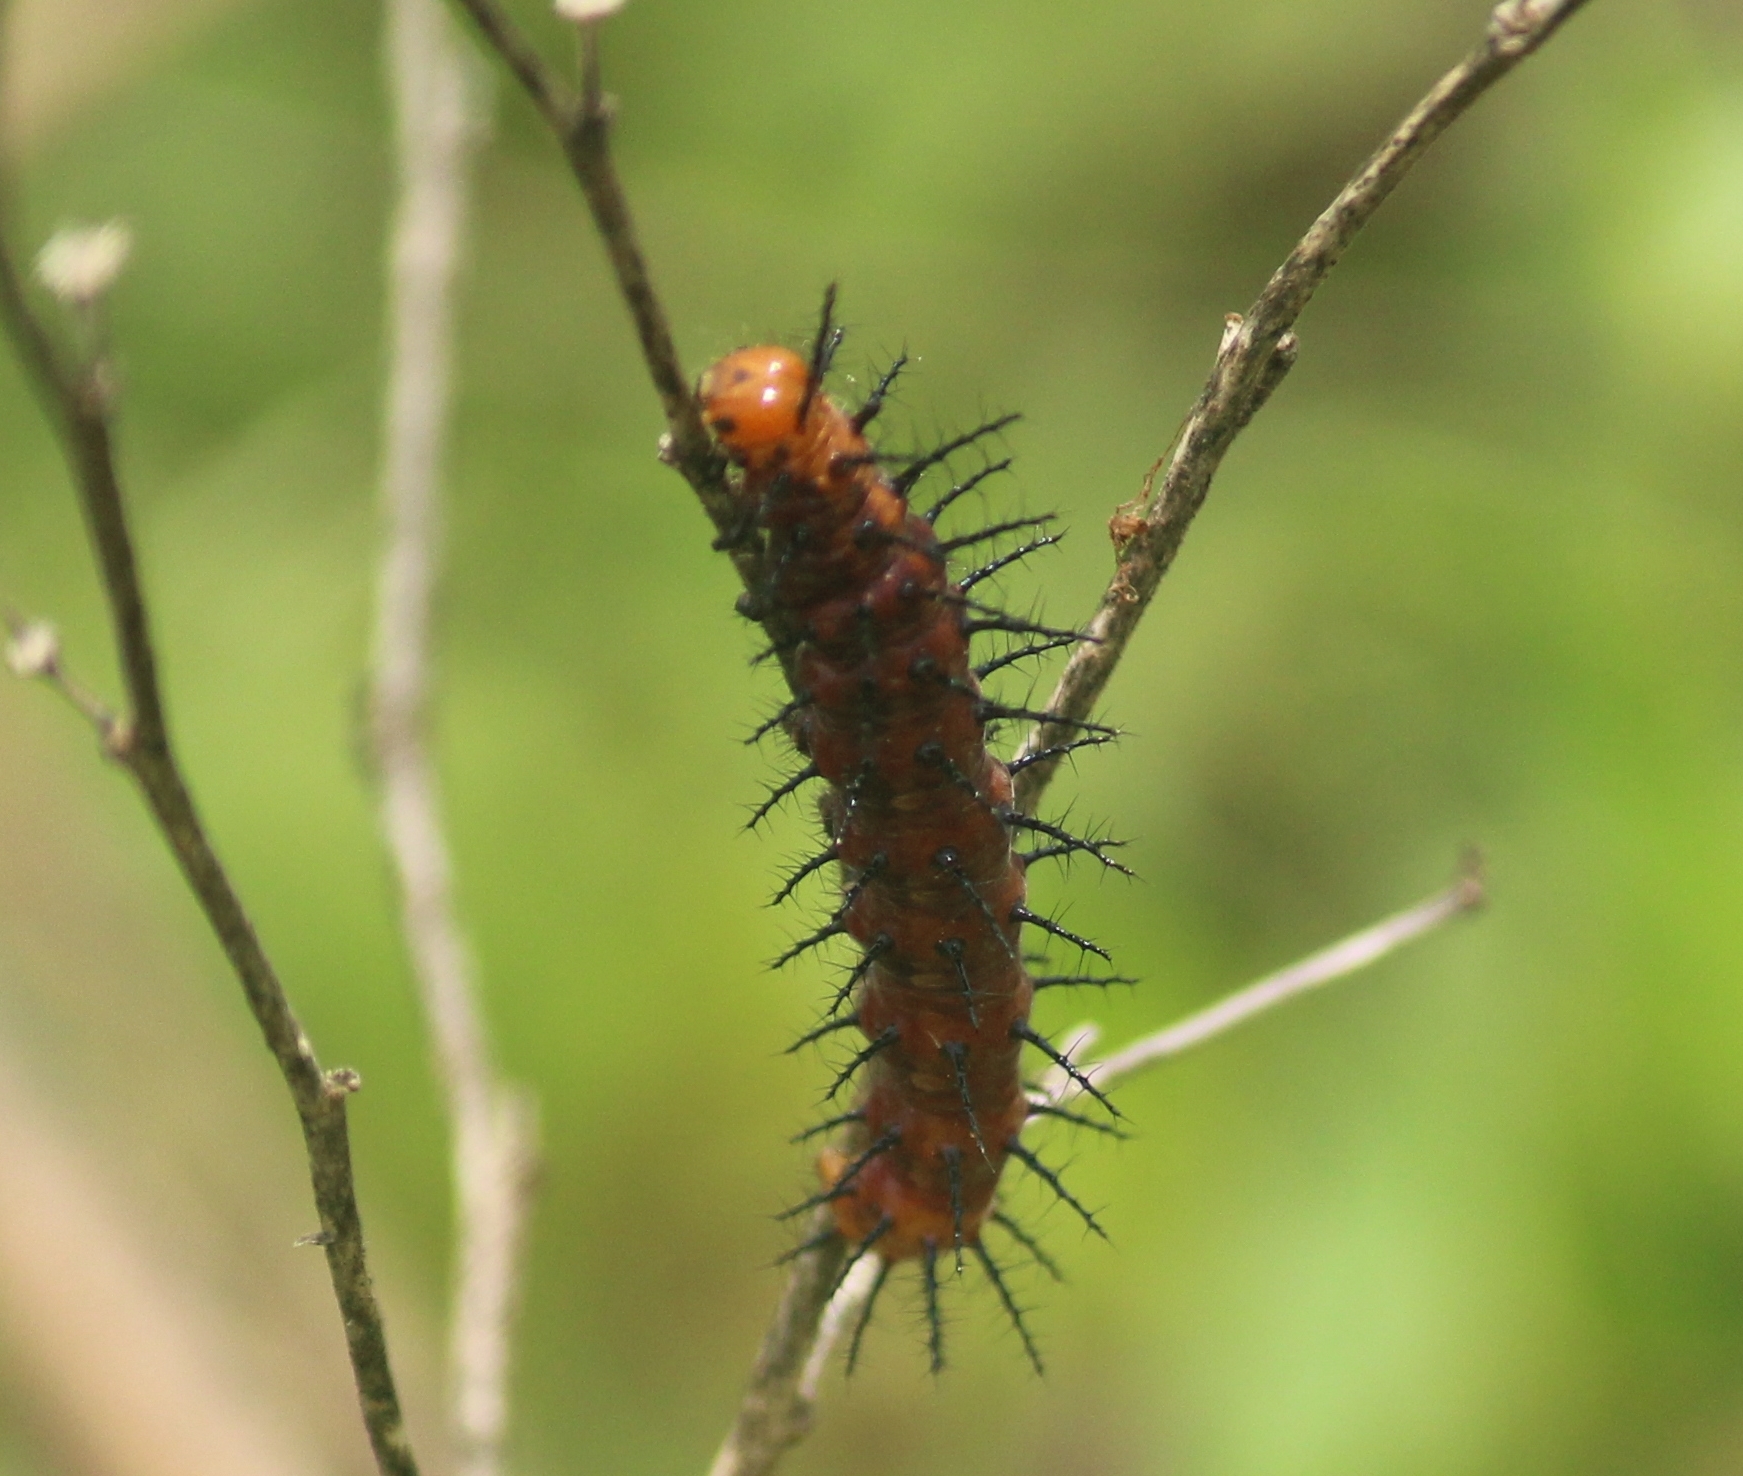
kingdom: Animalia
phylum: Arthropoda
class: Insecta
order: Lepidoptera
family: Nymphalidae
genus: Acraea
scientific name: Acraea terpsicore
